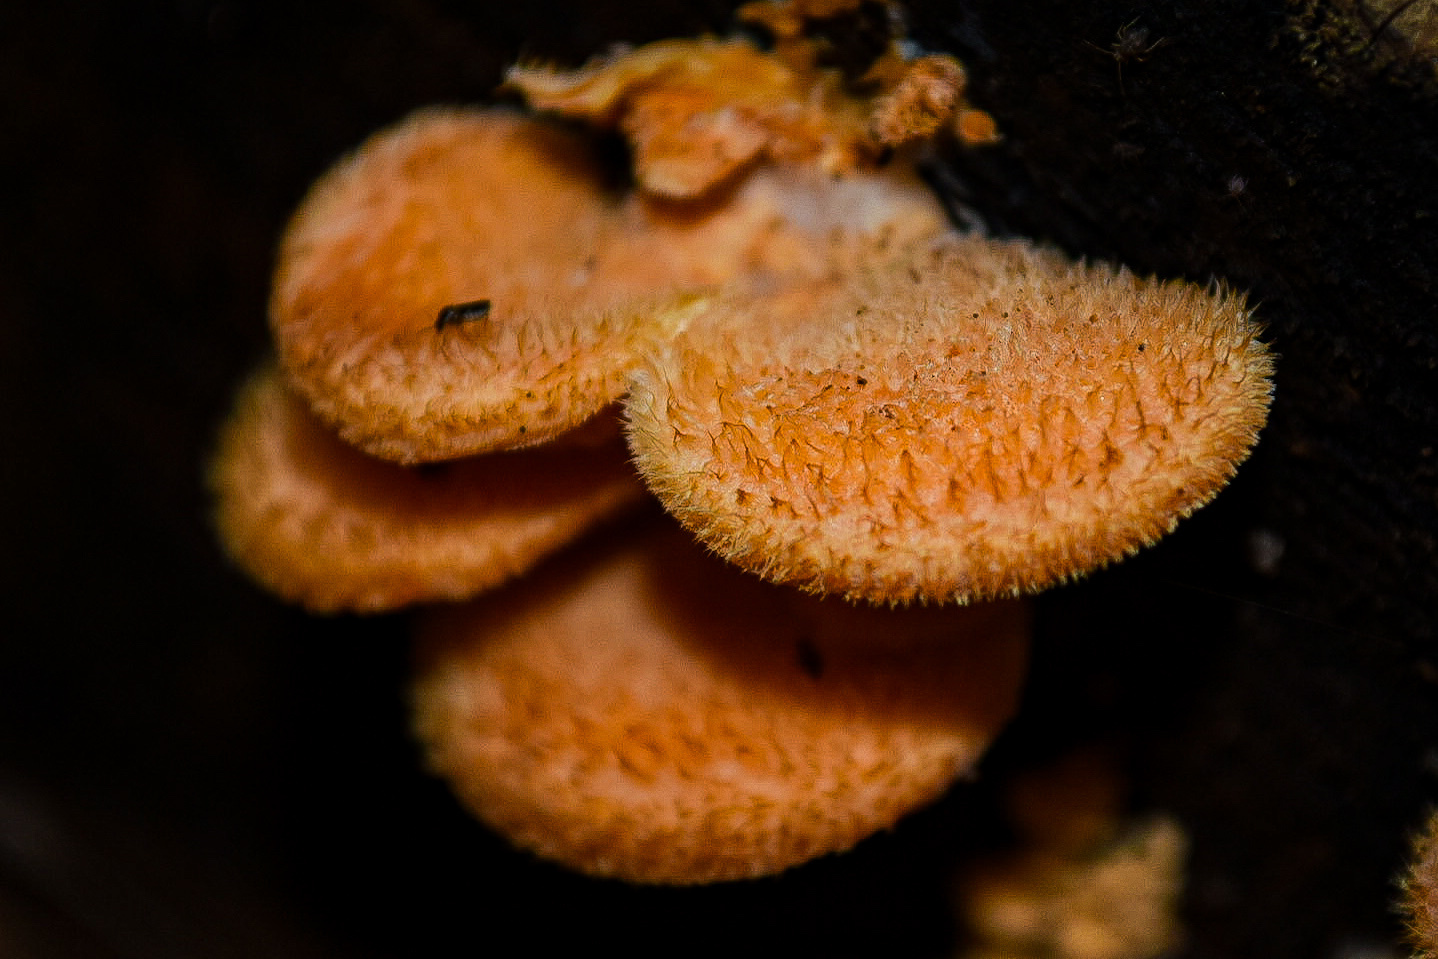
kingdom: Fungi
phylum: Basidiomycota
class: Agaricomycetes
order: Agaricales
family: Phyllotopsidaceae
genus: Phyllotopsis
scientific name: Phyllotopsis nidulans
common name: Orange mock oyster
